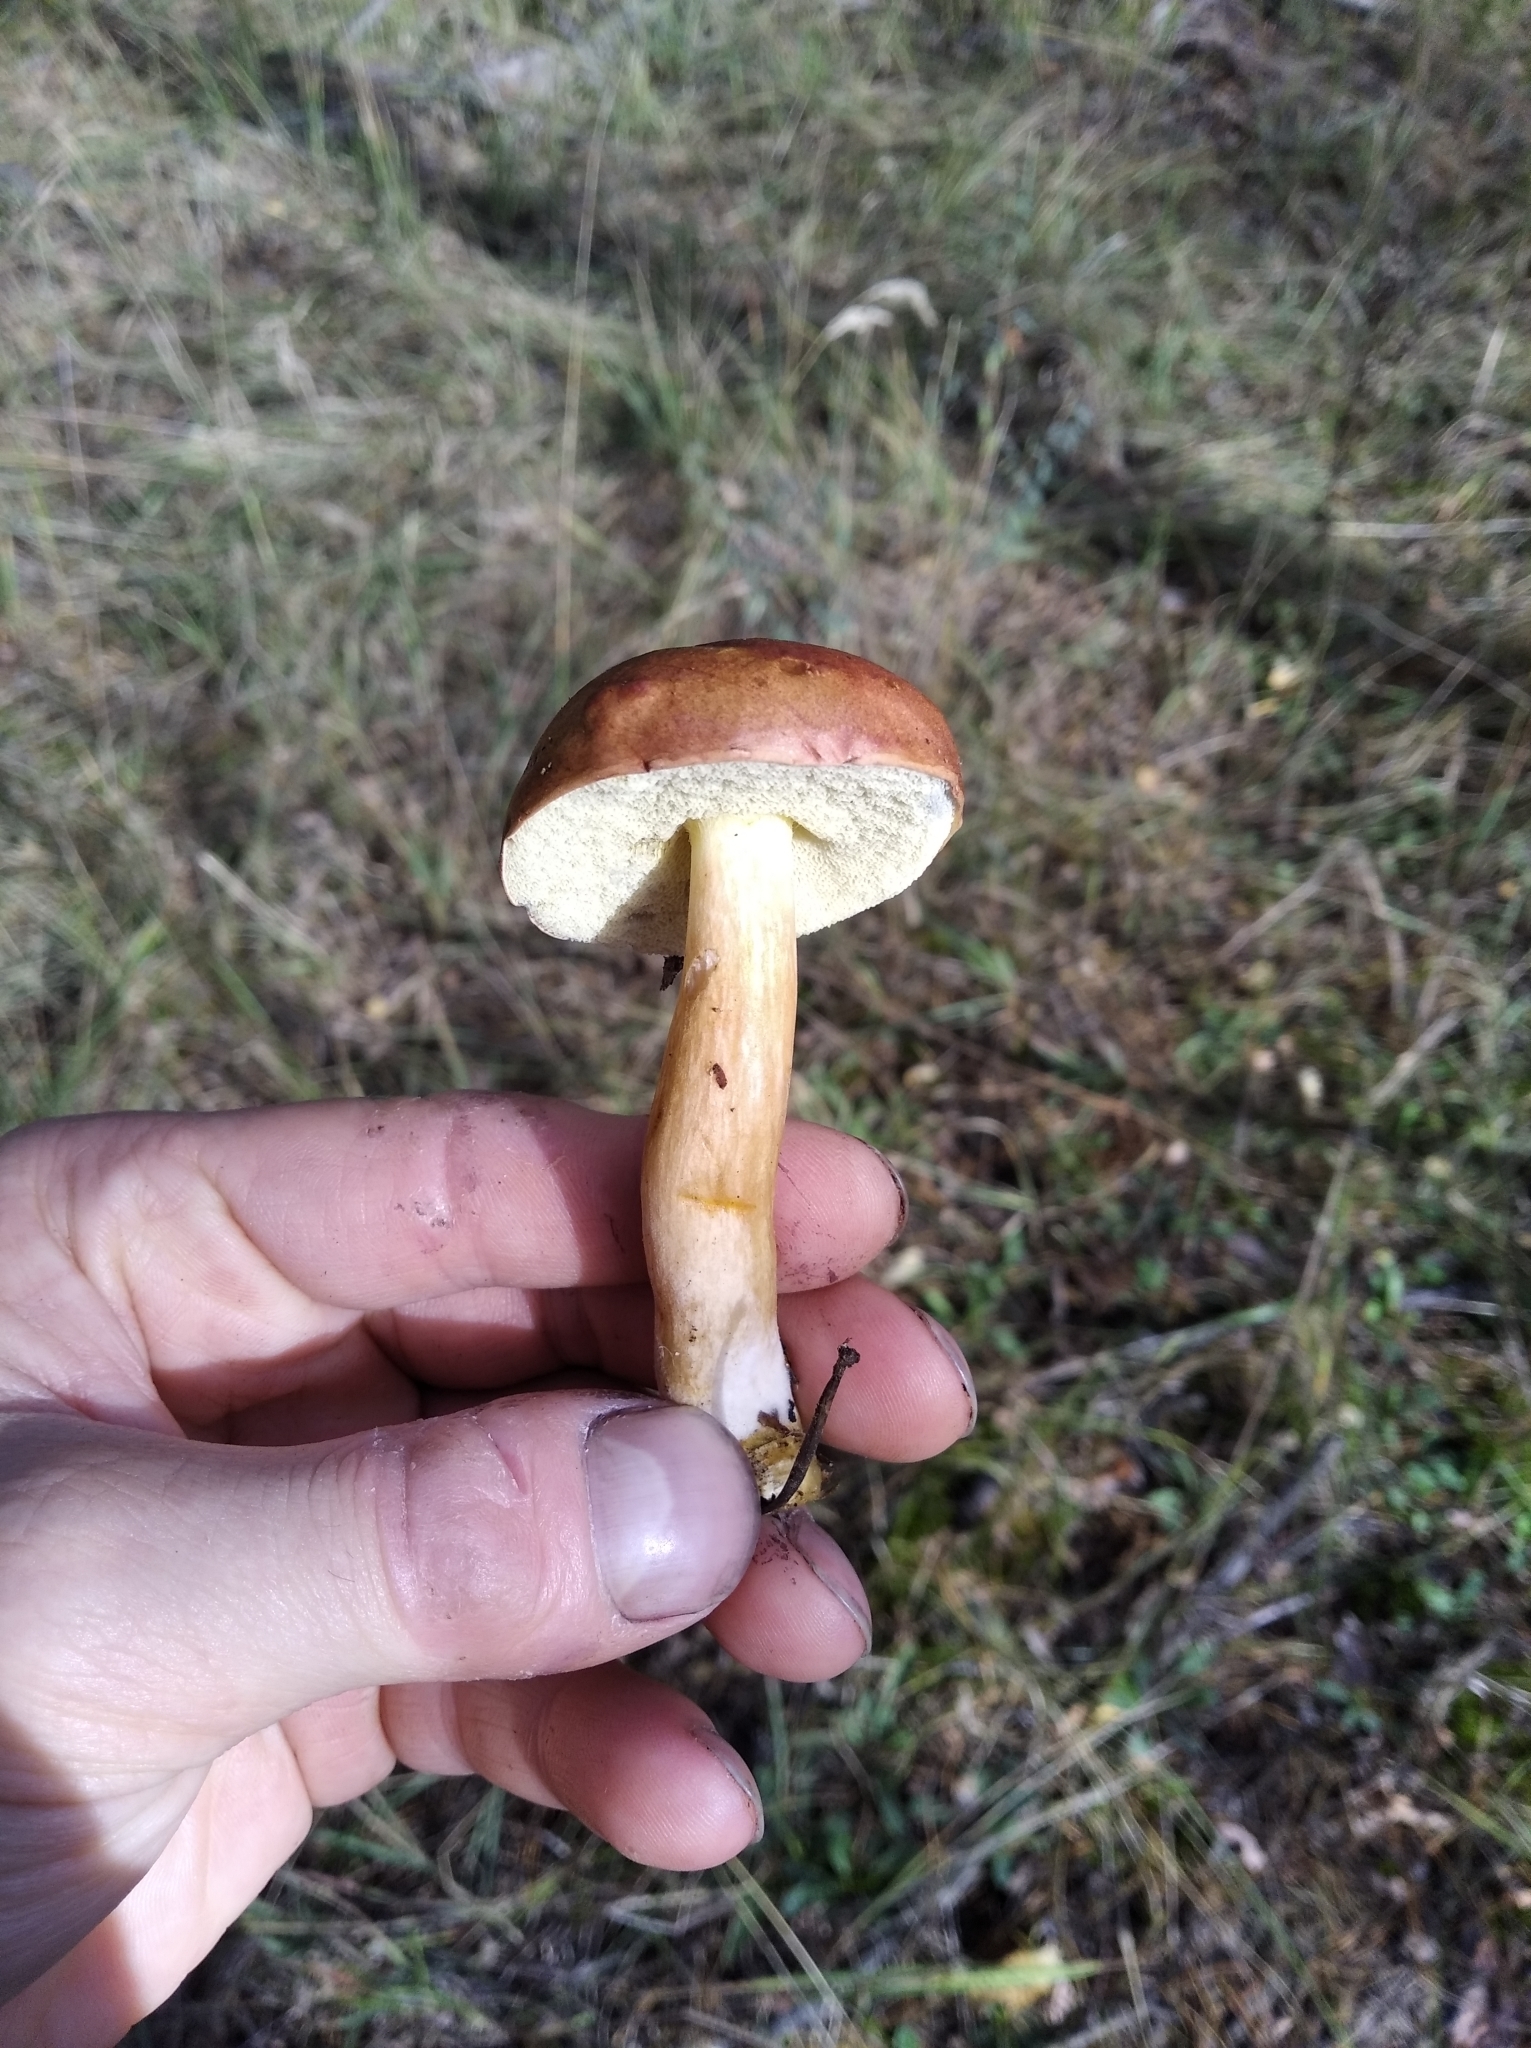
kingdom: Fungi
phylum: Basidiomycota
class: Agaricomycetes
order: Boletales
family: Boletaceae
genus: Imleria
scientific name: Imleria badia
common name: Bay bolete
